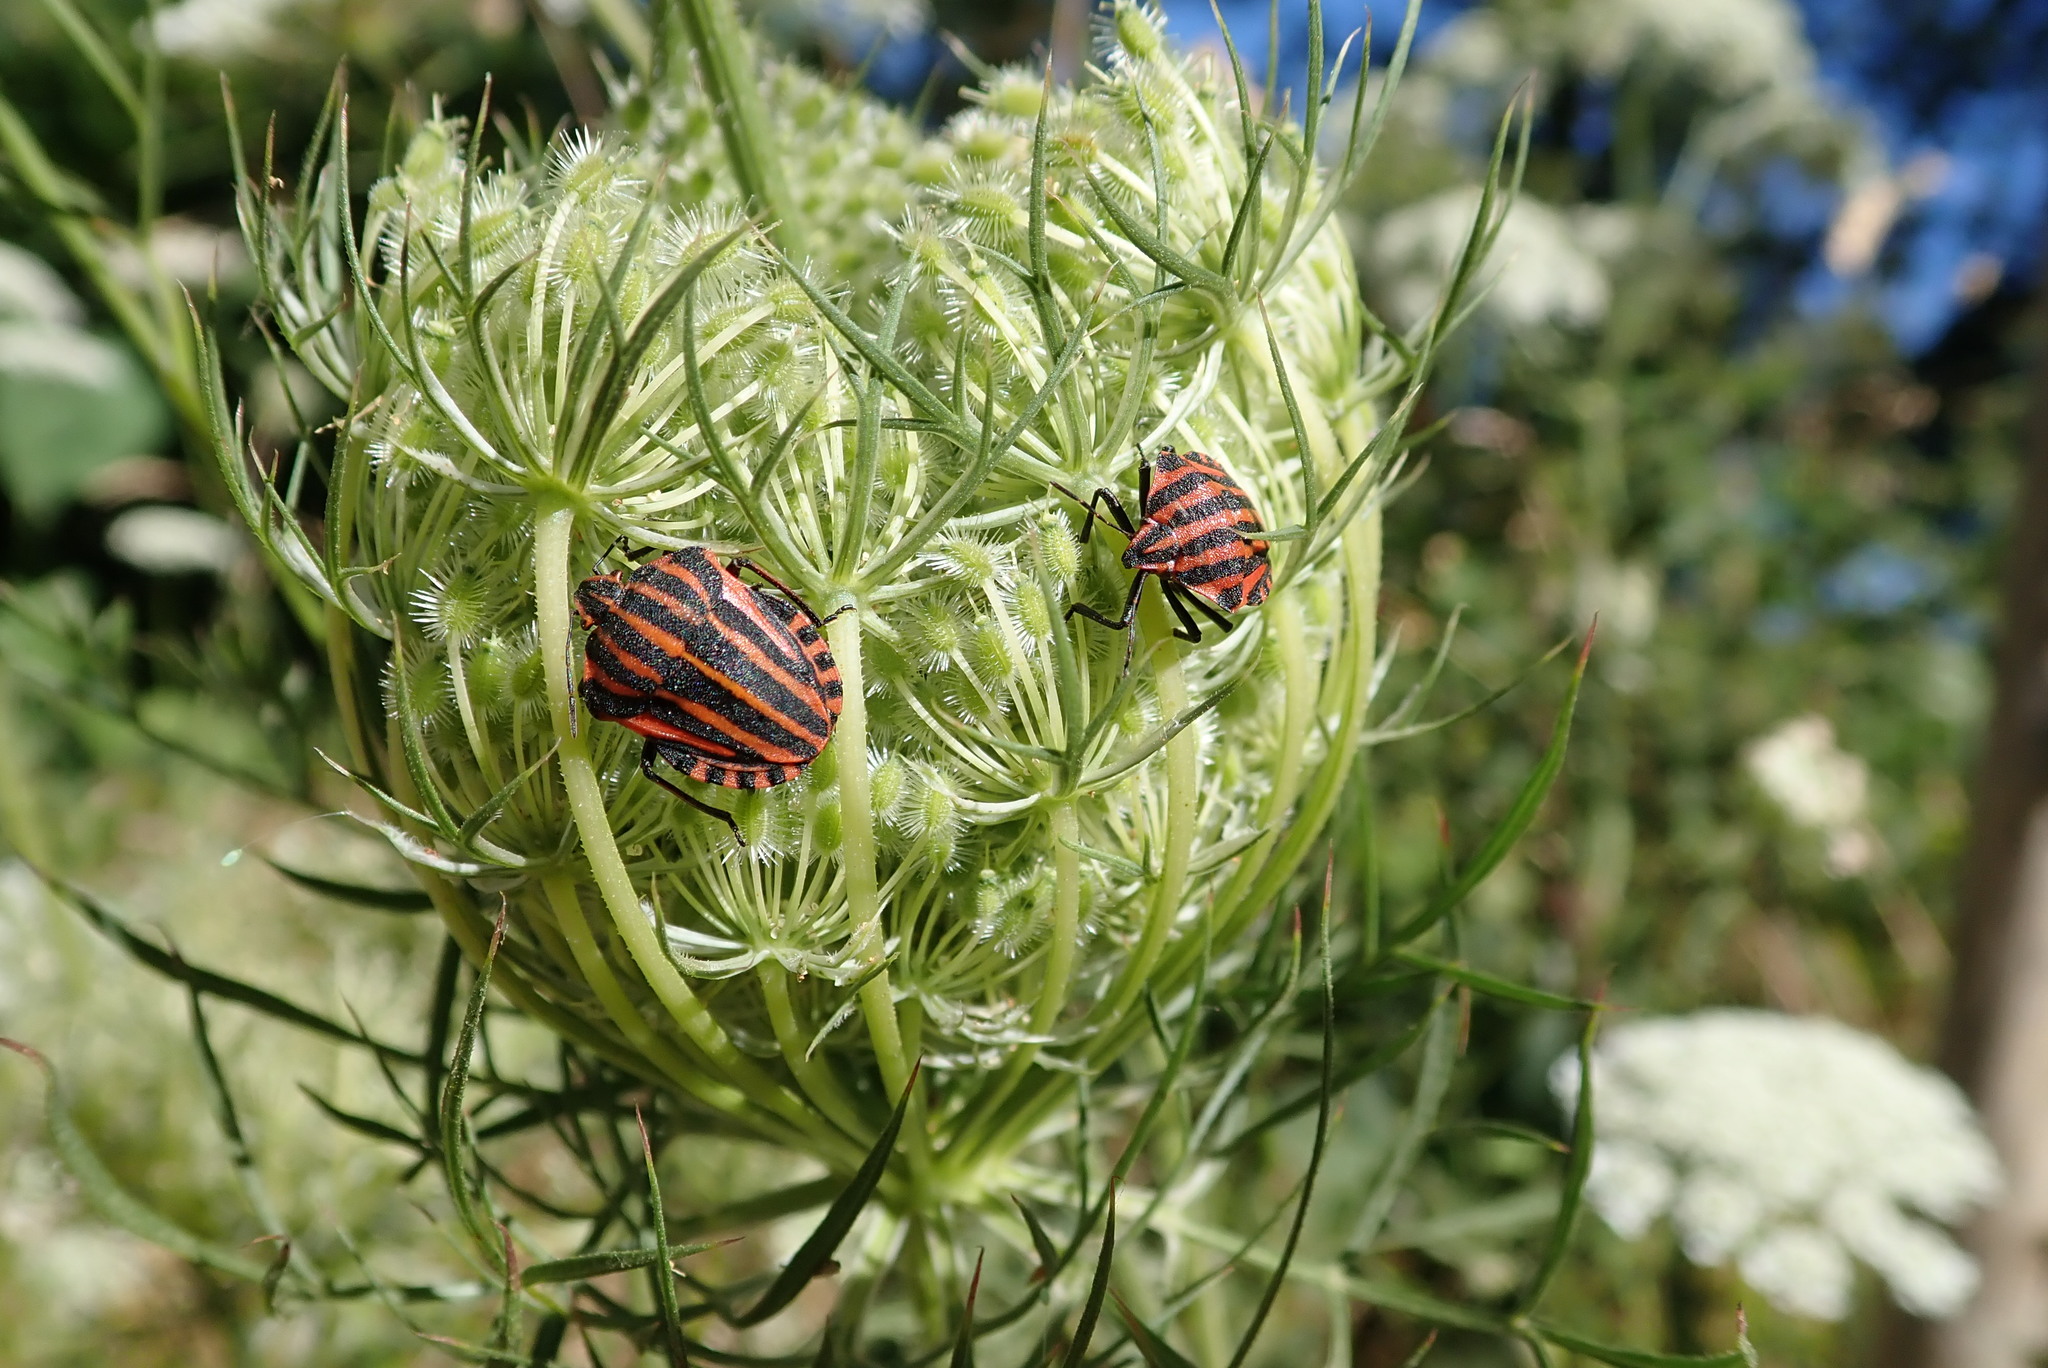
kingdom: Animalia
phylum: Arthropoda
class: Insecta
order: Hemiptera
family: Pentatomidae
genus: Graphosoma
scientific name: Graphosoma italicum
